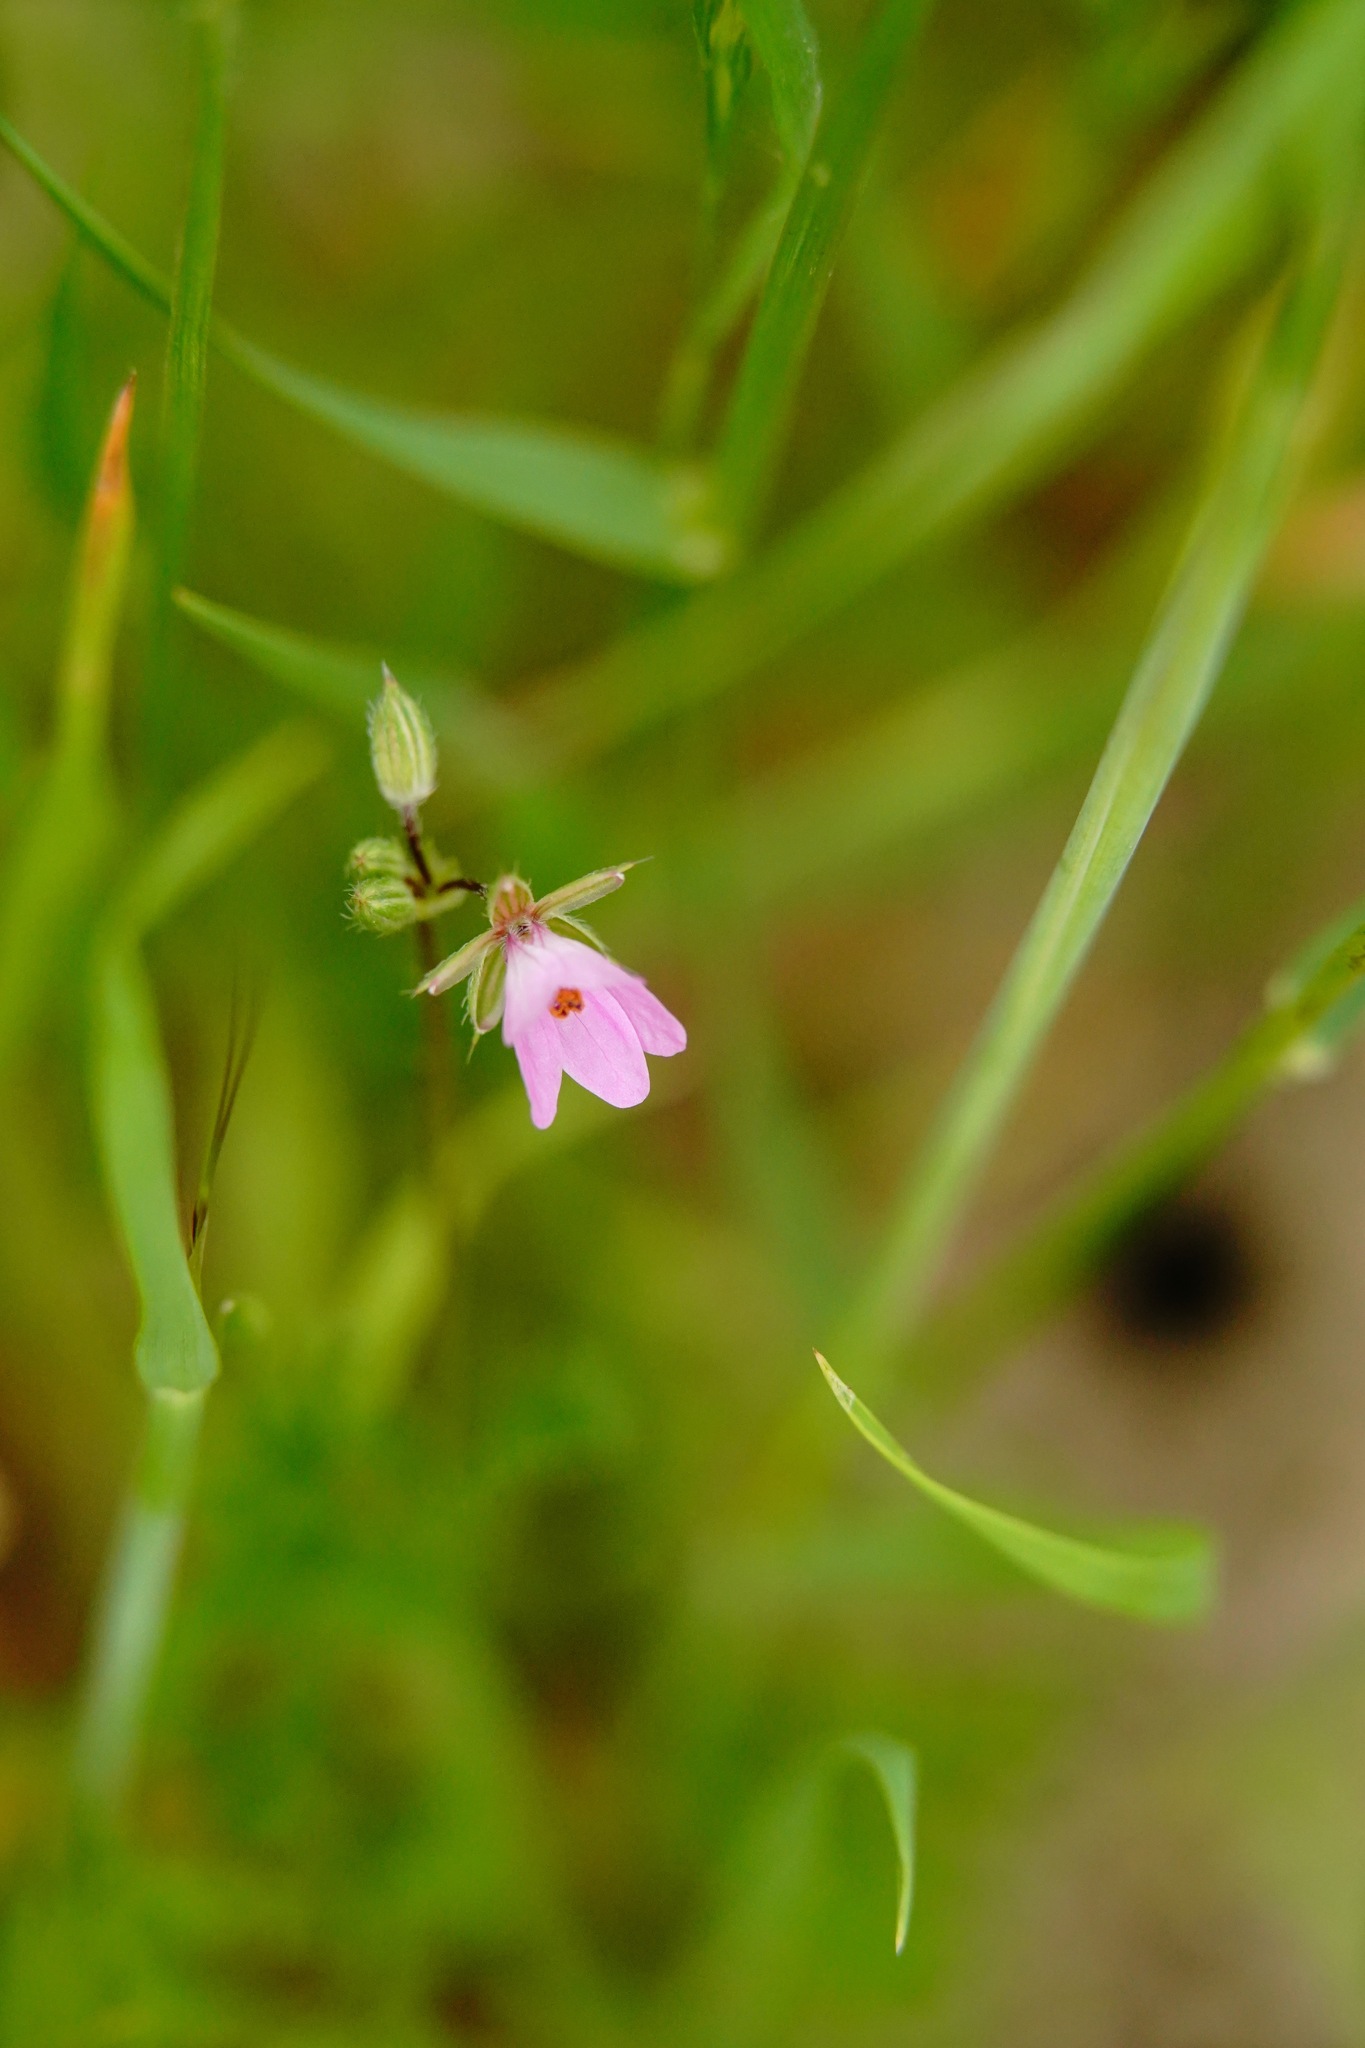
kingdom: Plantae
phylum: Tracheophyta
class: Magnoliopsida
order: Geraniales
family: Geraniaceae
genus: Erodium
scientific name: Erodium cicutarium
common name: Common stork's-bill
